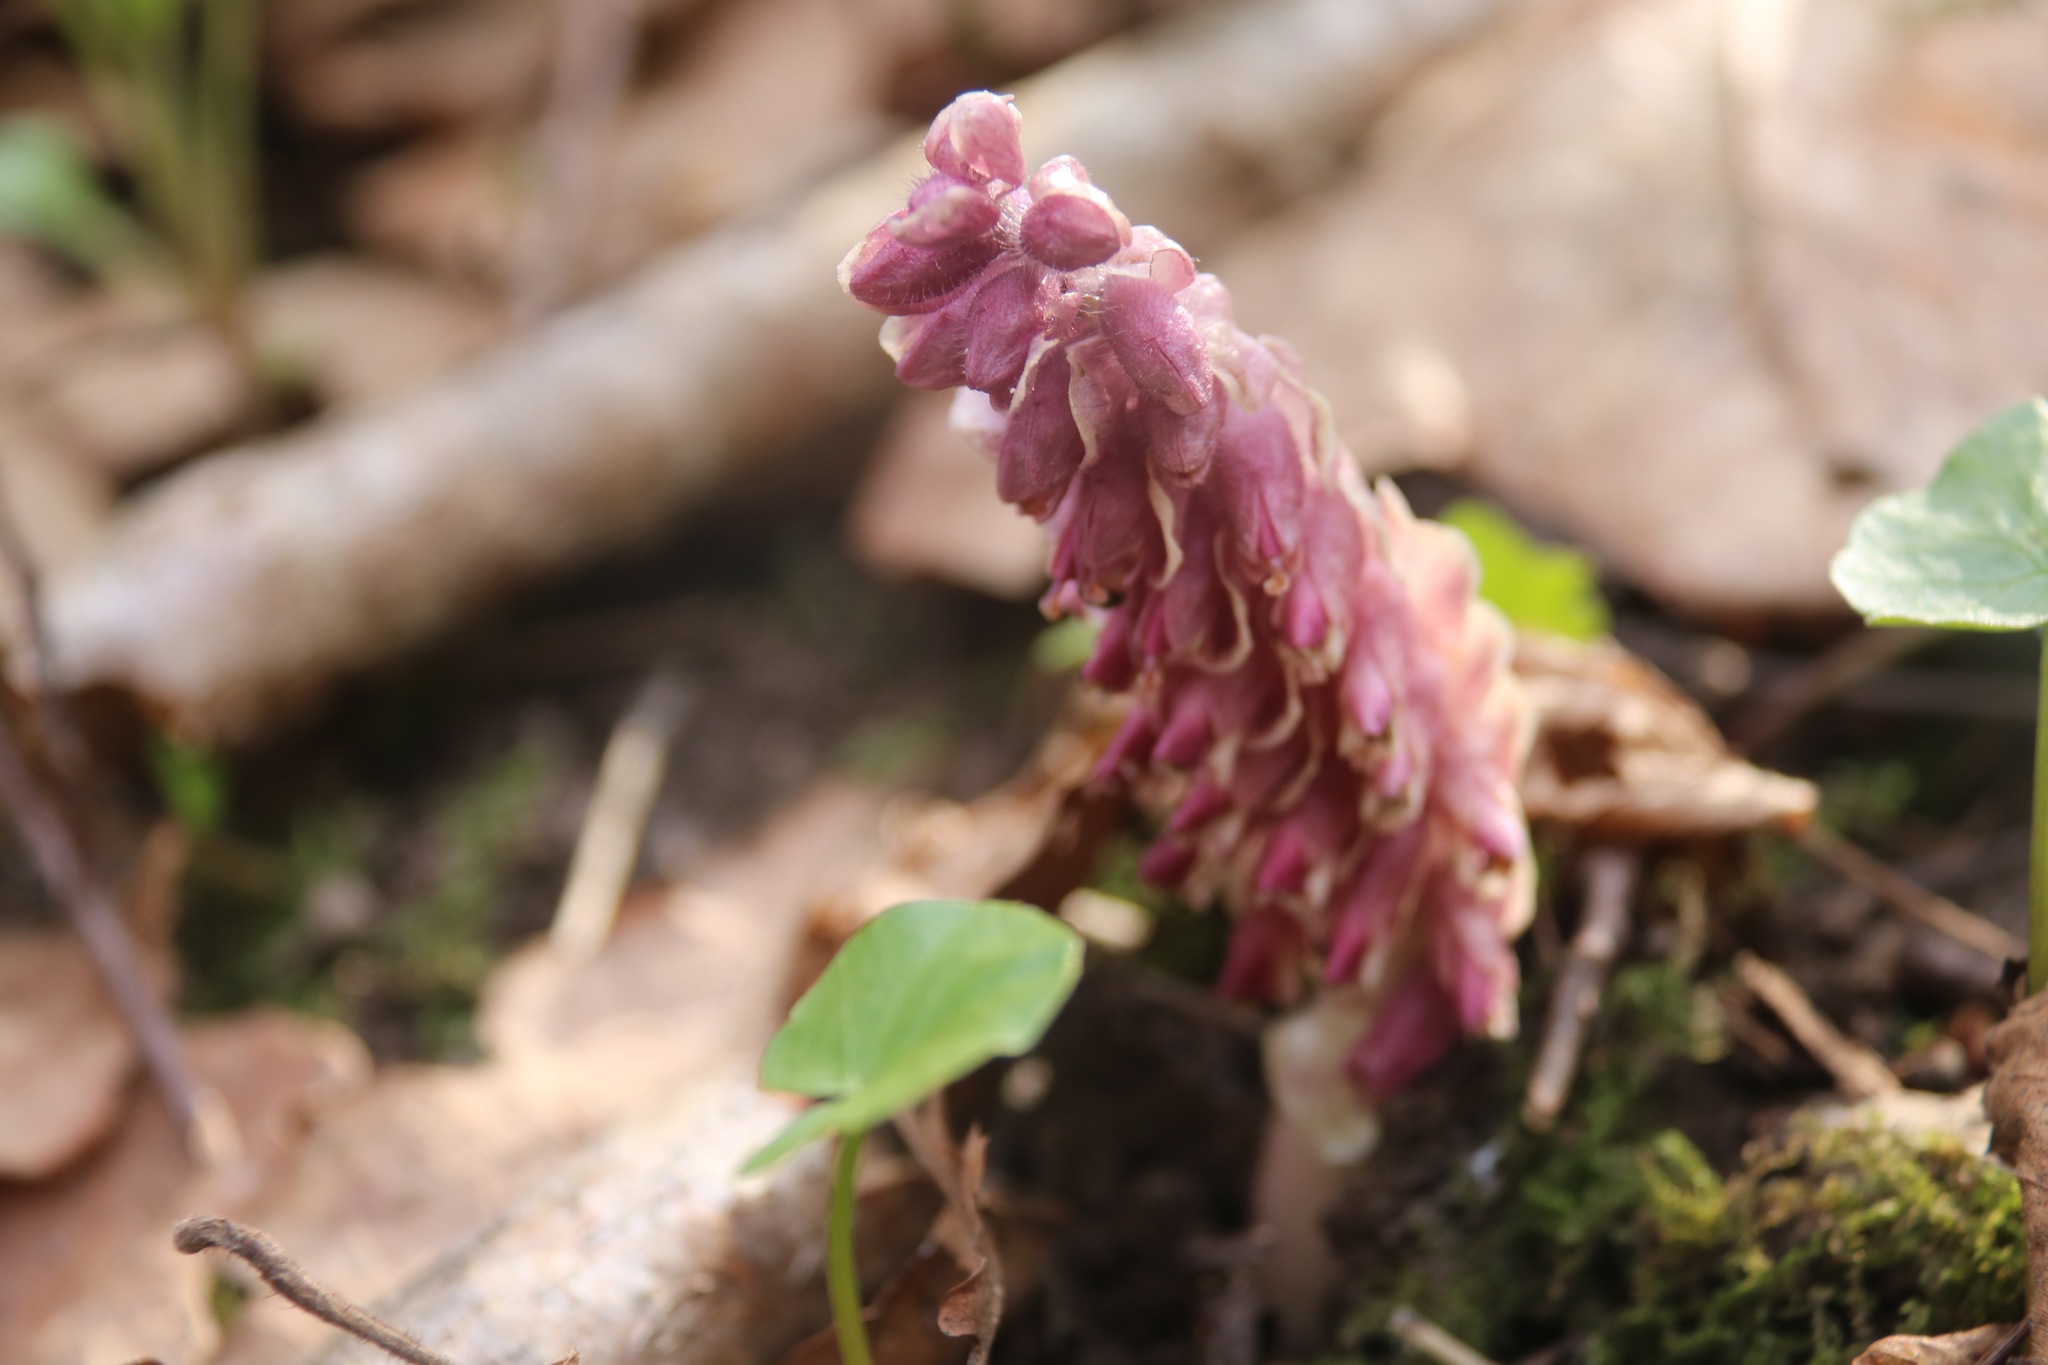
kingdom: Plantae
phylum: Tracheophyta
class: Magnoliopsida
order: Lamiales
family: Orobanchaceae
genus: Lathraea
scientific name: Lathraea squamaria
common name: Toothwort
